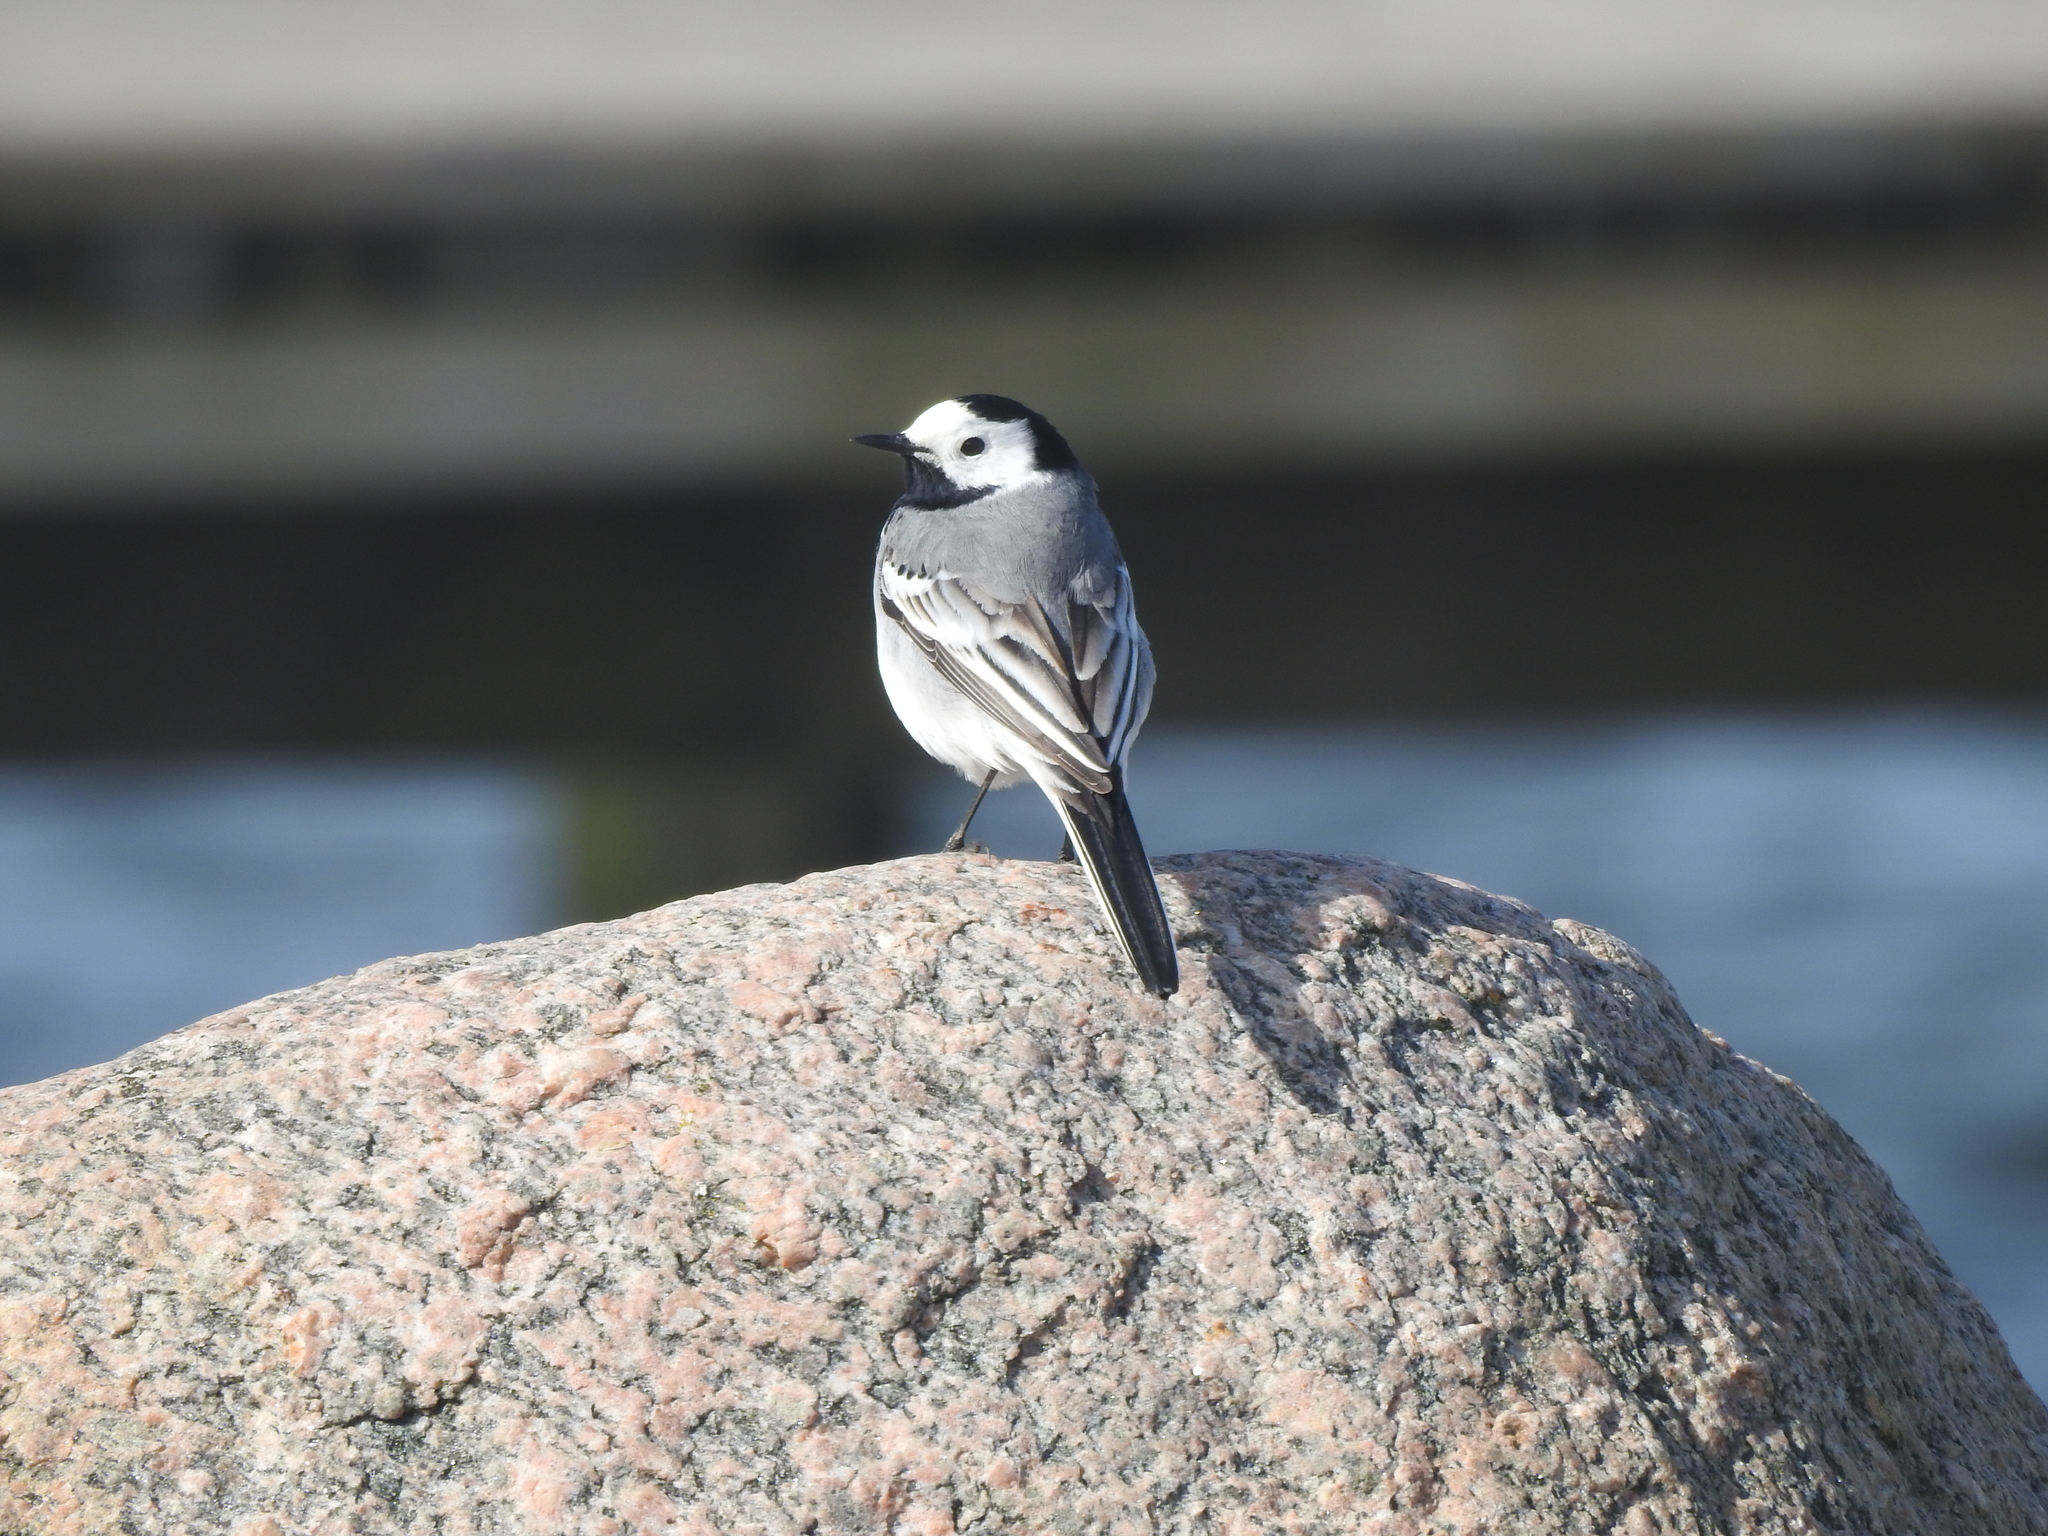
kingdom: Animalia
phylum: Chordata
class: Aves
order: Passeriformes
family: Motacillidae
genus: Motacilla
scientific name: Motacilla alba
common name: White wagtail
